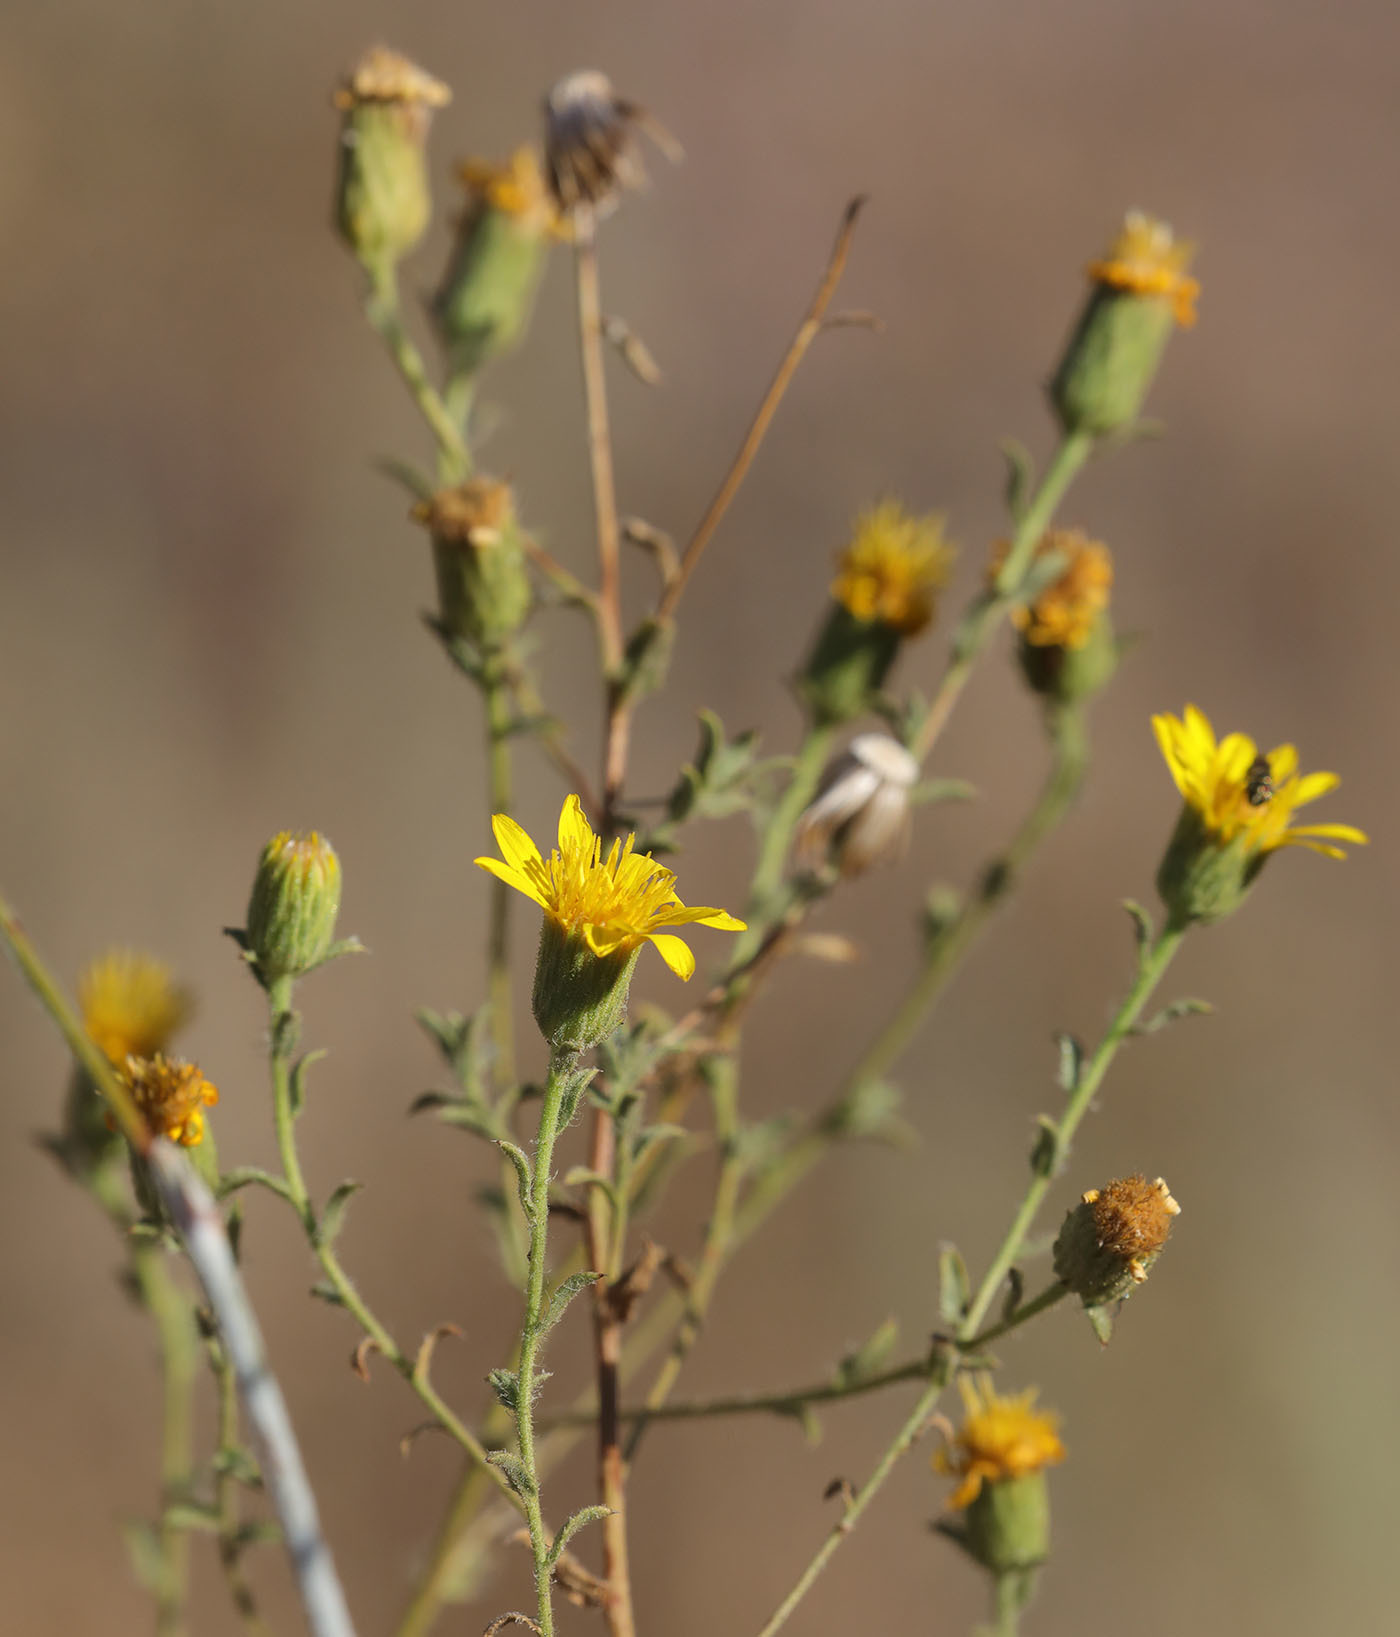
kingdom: Plantae
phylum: Tracheophyta
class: Magnoliopsida
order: Asterales
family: Asteraceae
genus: Heterotheca
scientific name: Heterotheca sessiliflora
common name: Sessile-flower golden-aster
